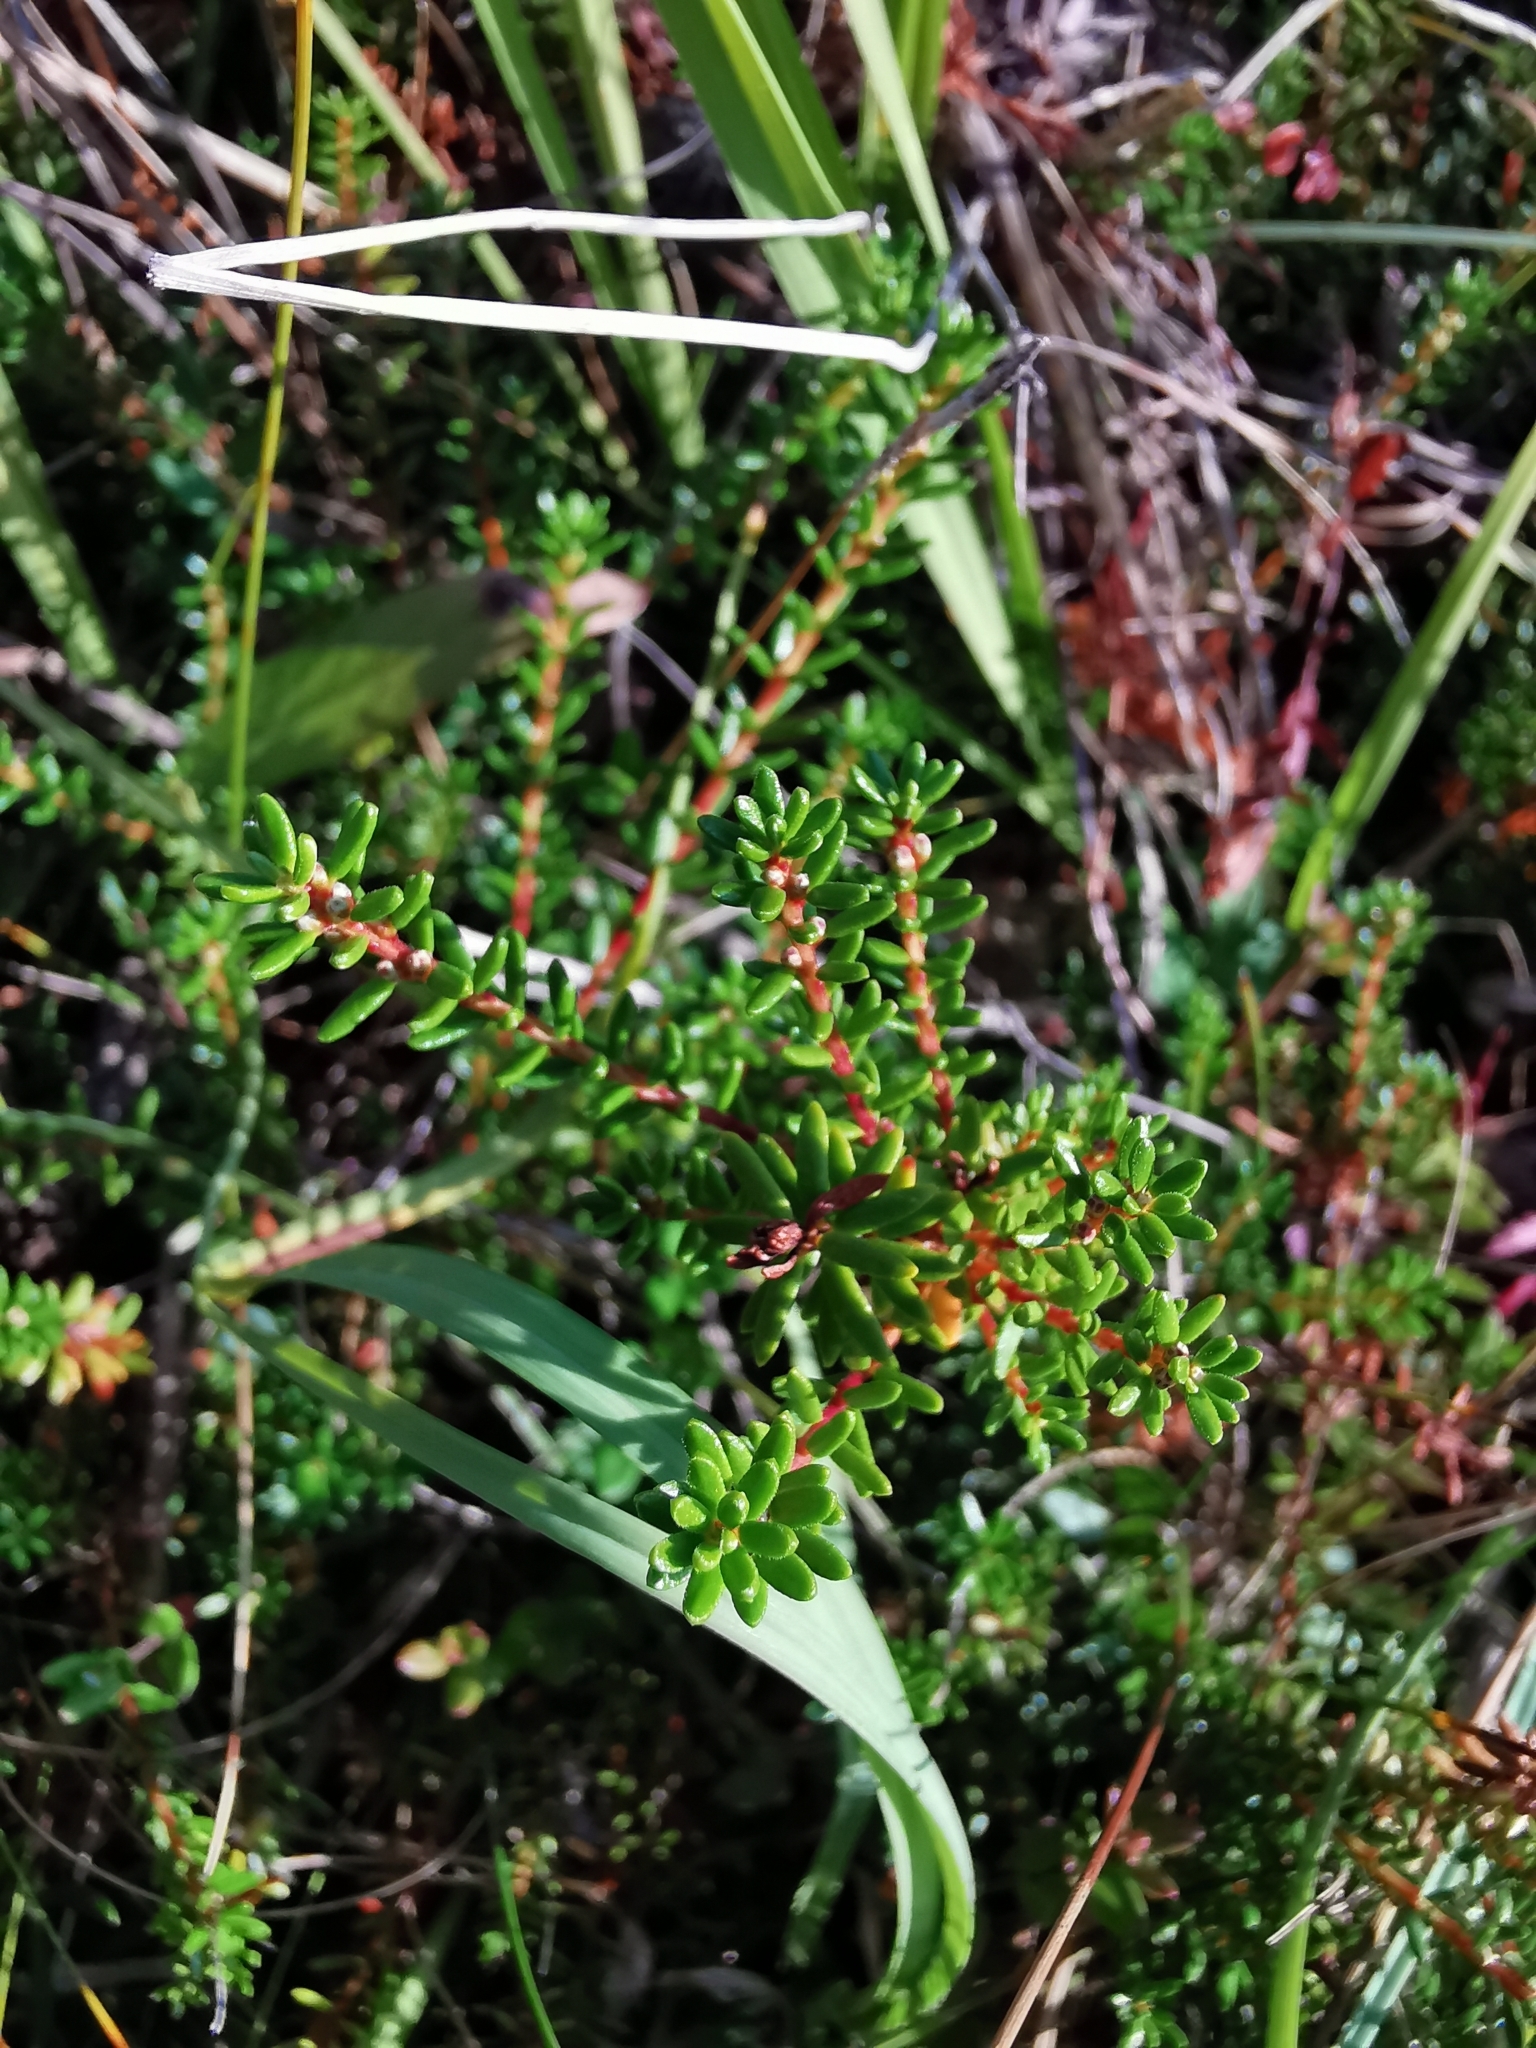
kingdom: Plantae
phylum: Tracheophyta
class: Magnoliopsida
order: Ericales
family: Ericaceae
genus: Empetrum
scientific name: Empetrum nigrum
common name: Black crowberry
